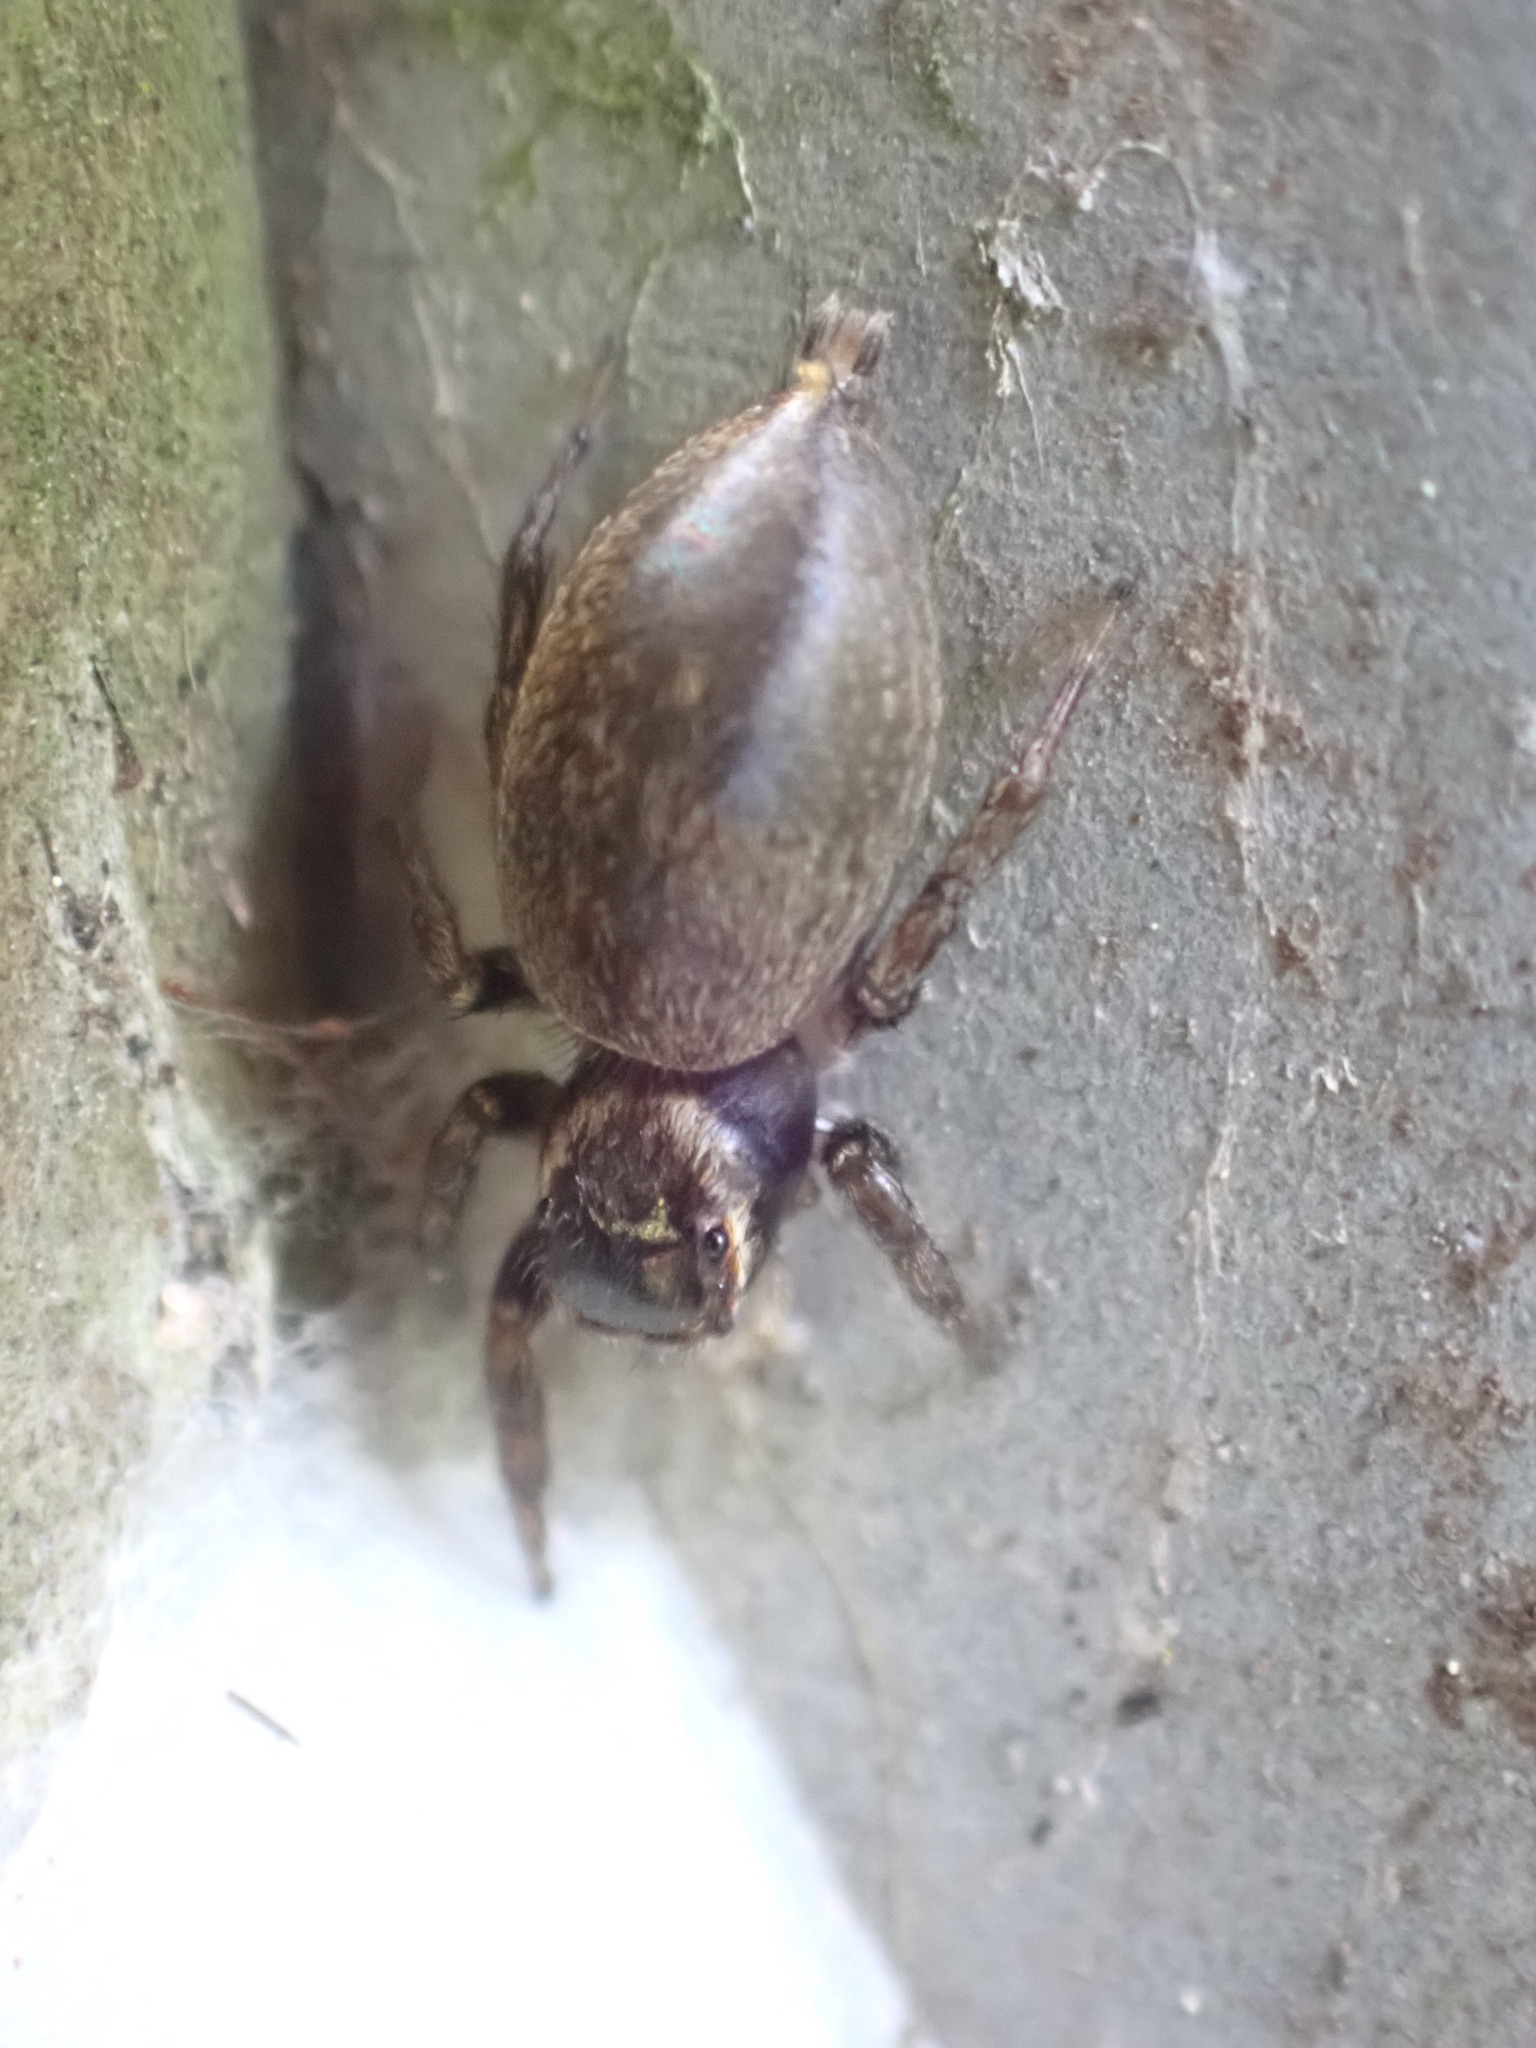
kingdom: Animalia
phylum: Arthropoda
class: Arachnida
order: Araneae
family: Salticidae
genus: Maratus
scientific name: Maratus griseus
